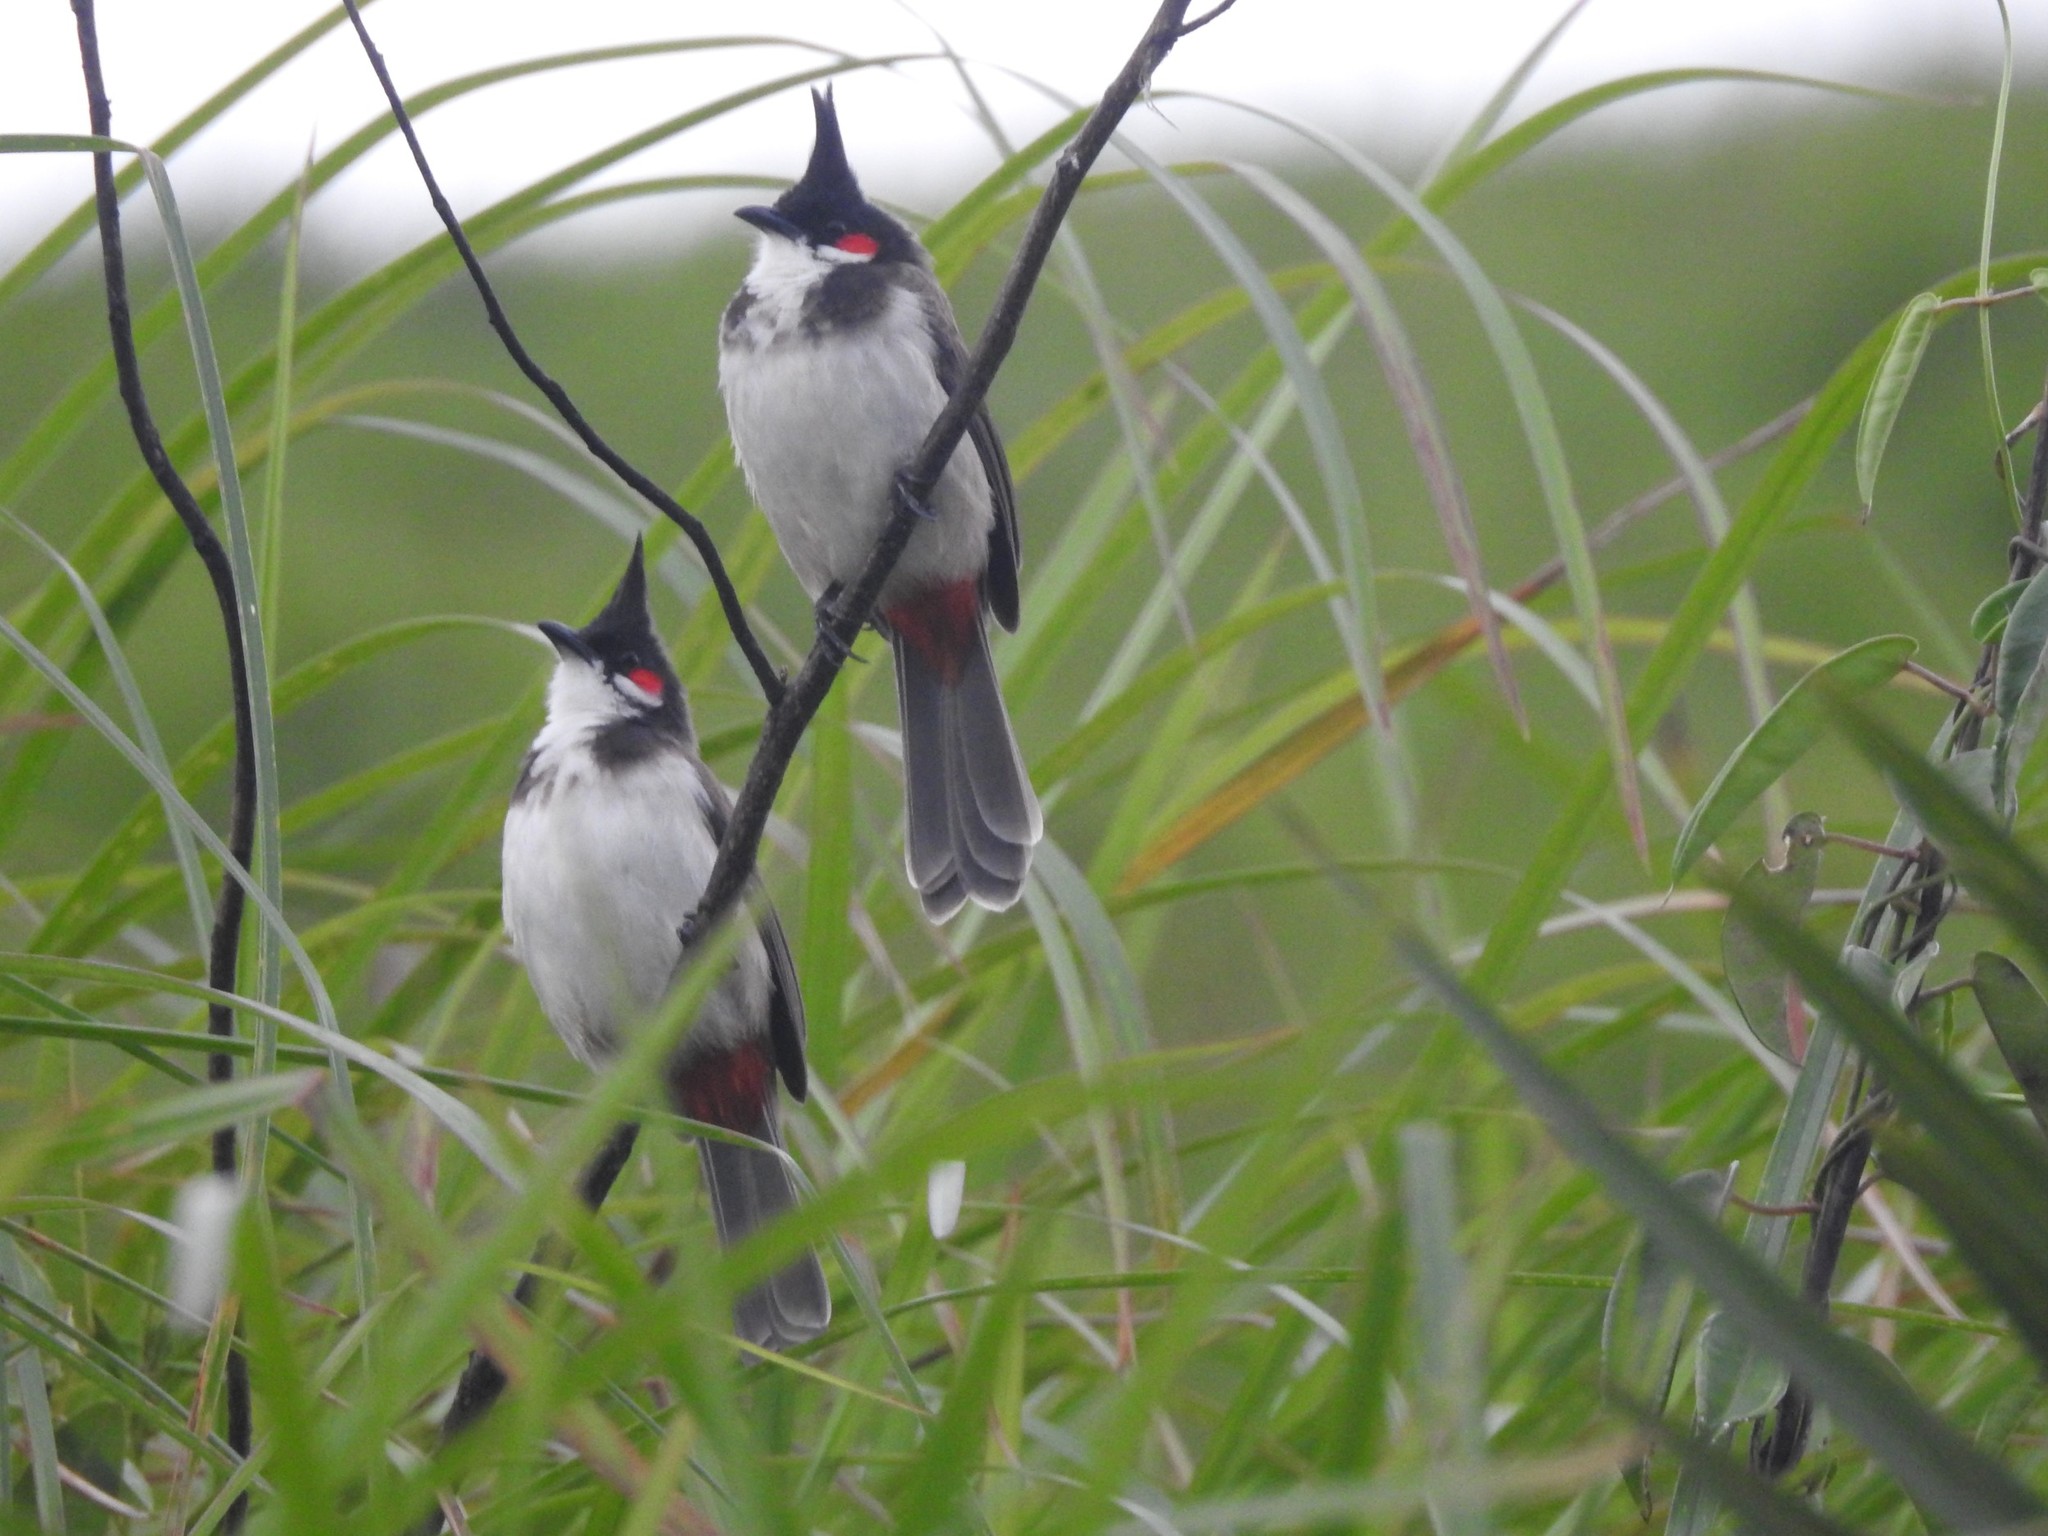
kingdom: Animalia
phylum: Chordata
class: Aves
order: Passeriformes
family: Pycnonotidae
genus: Pycnonotus
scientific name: Pycnonotus jocosus
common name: Red-whiskered bulbul
